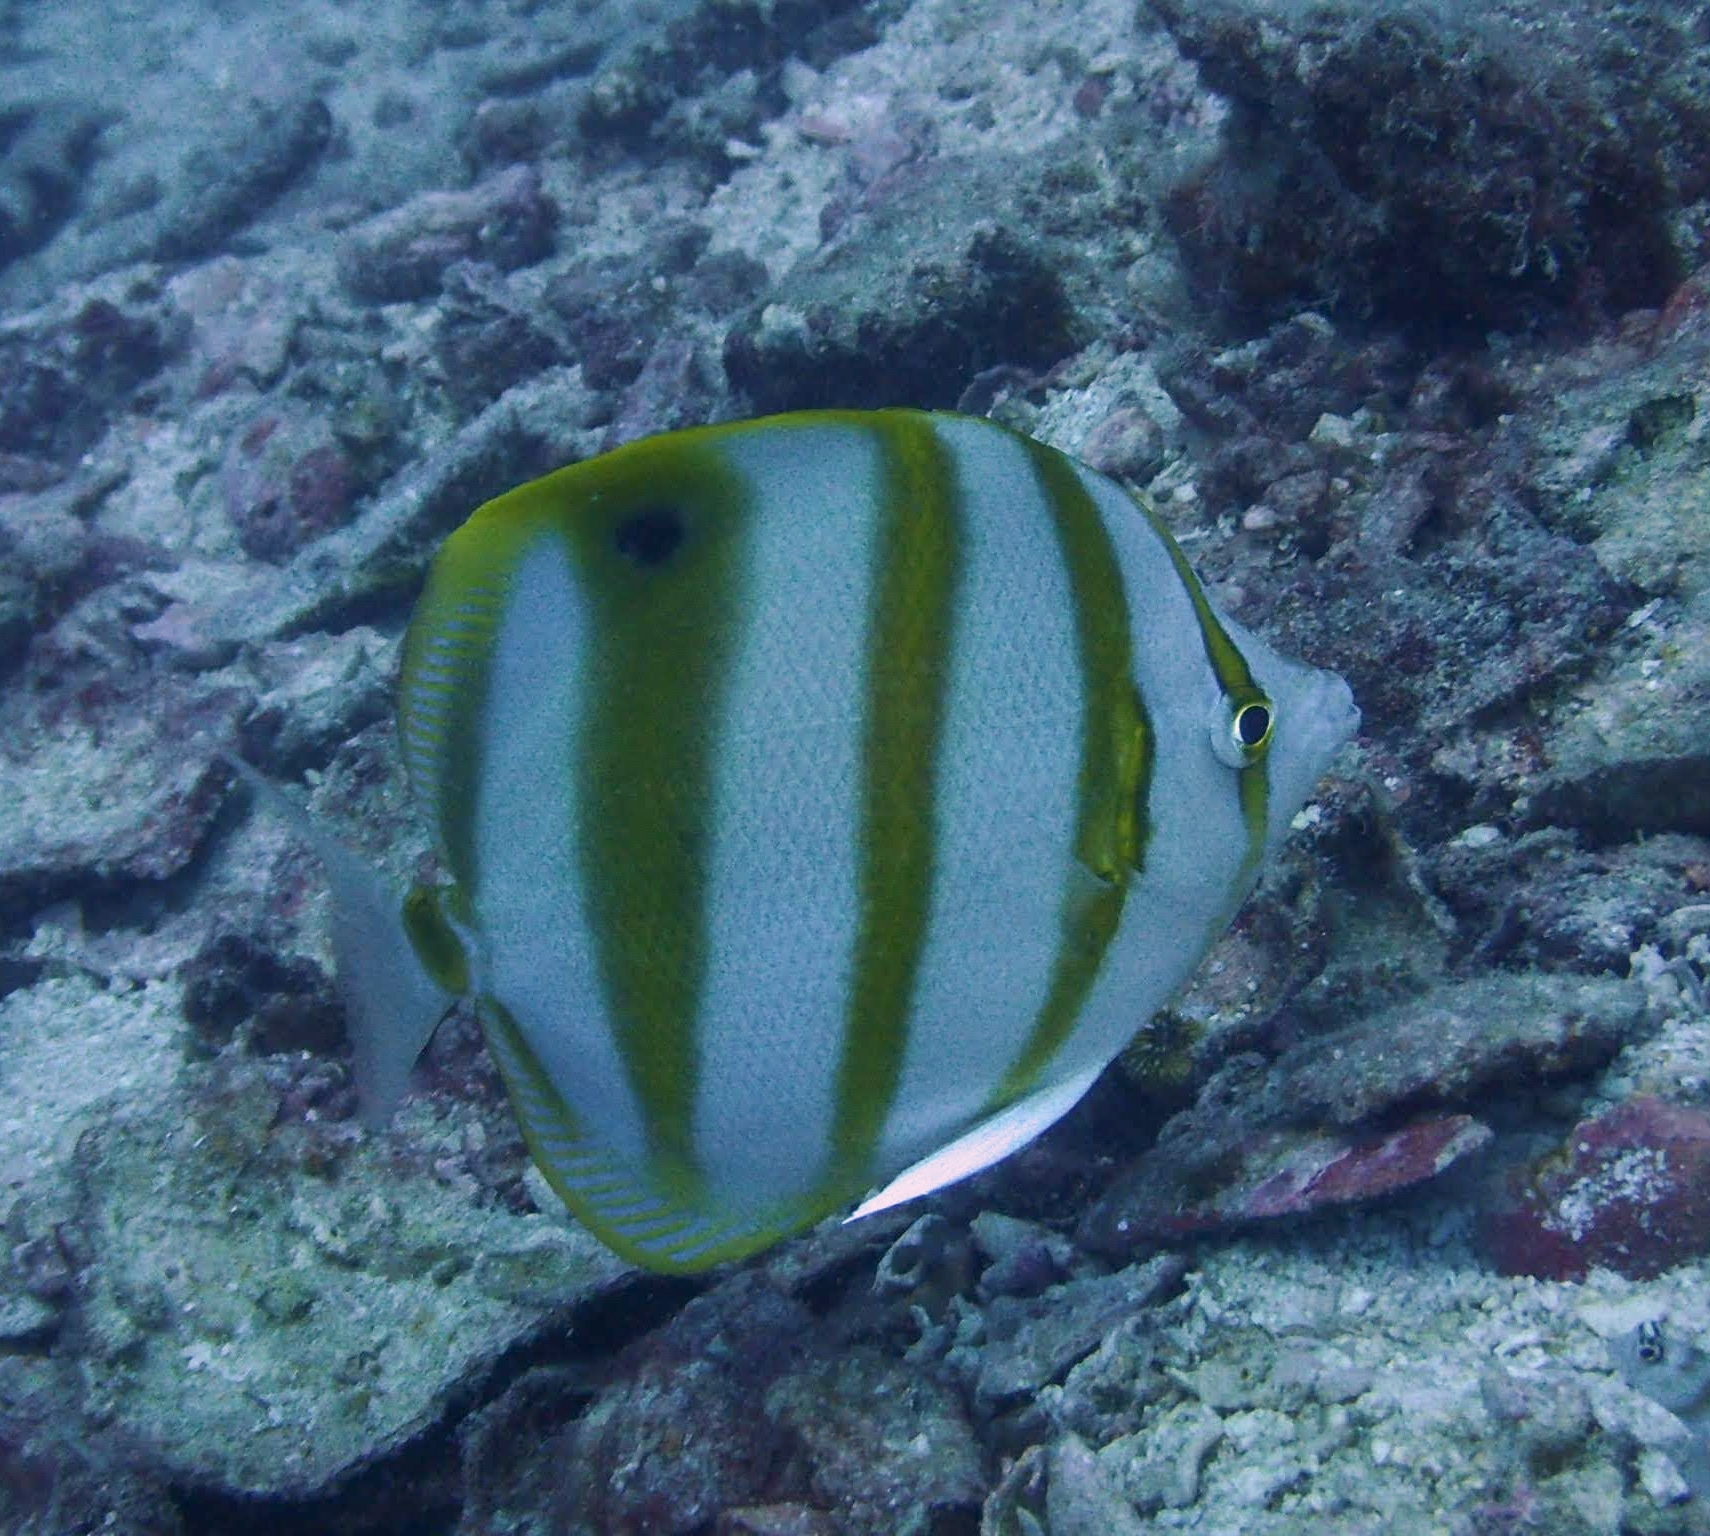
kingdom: Animalia
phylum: Chordata
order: Perciformes
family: Chaetodontidae
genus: Parachaetodon
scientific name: Parachaetodon ocellatus
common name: Ocellate coralfish
